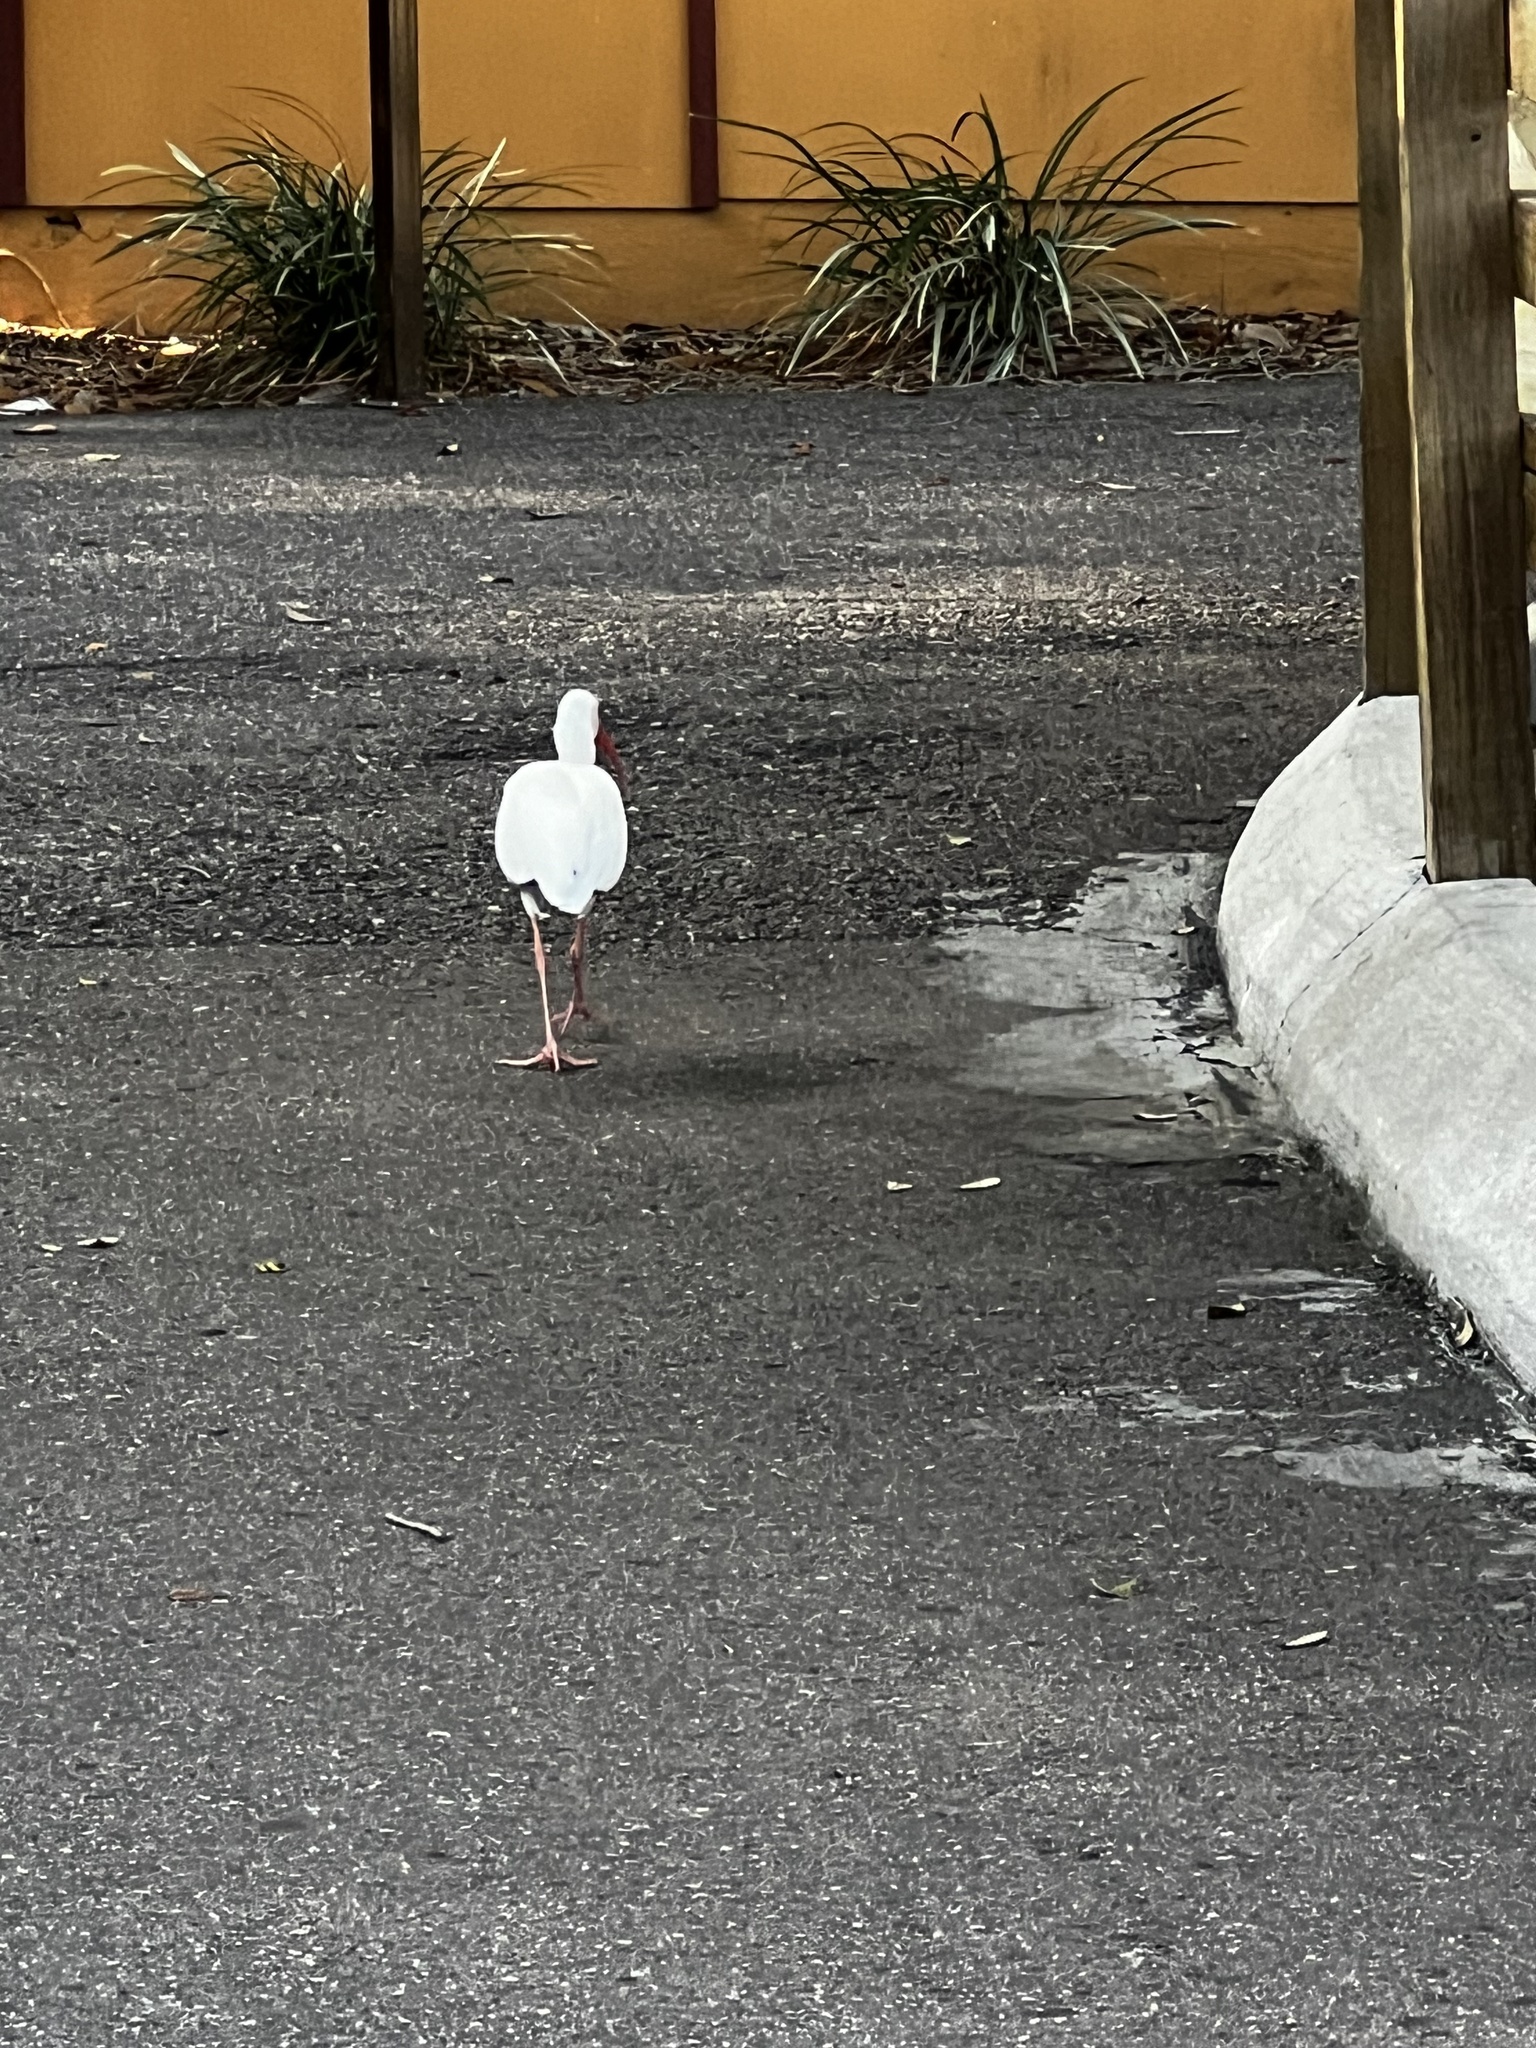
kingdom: Animalia
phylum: Chordata
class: Aves
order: Pelecaniformes
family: Threskiornithidae
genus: Eudocimus
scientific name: Eudocimus albus
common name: White ibis
